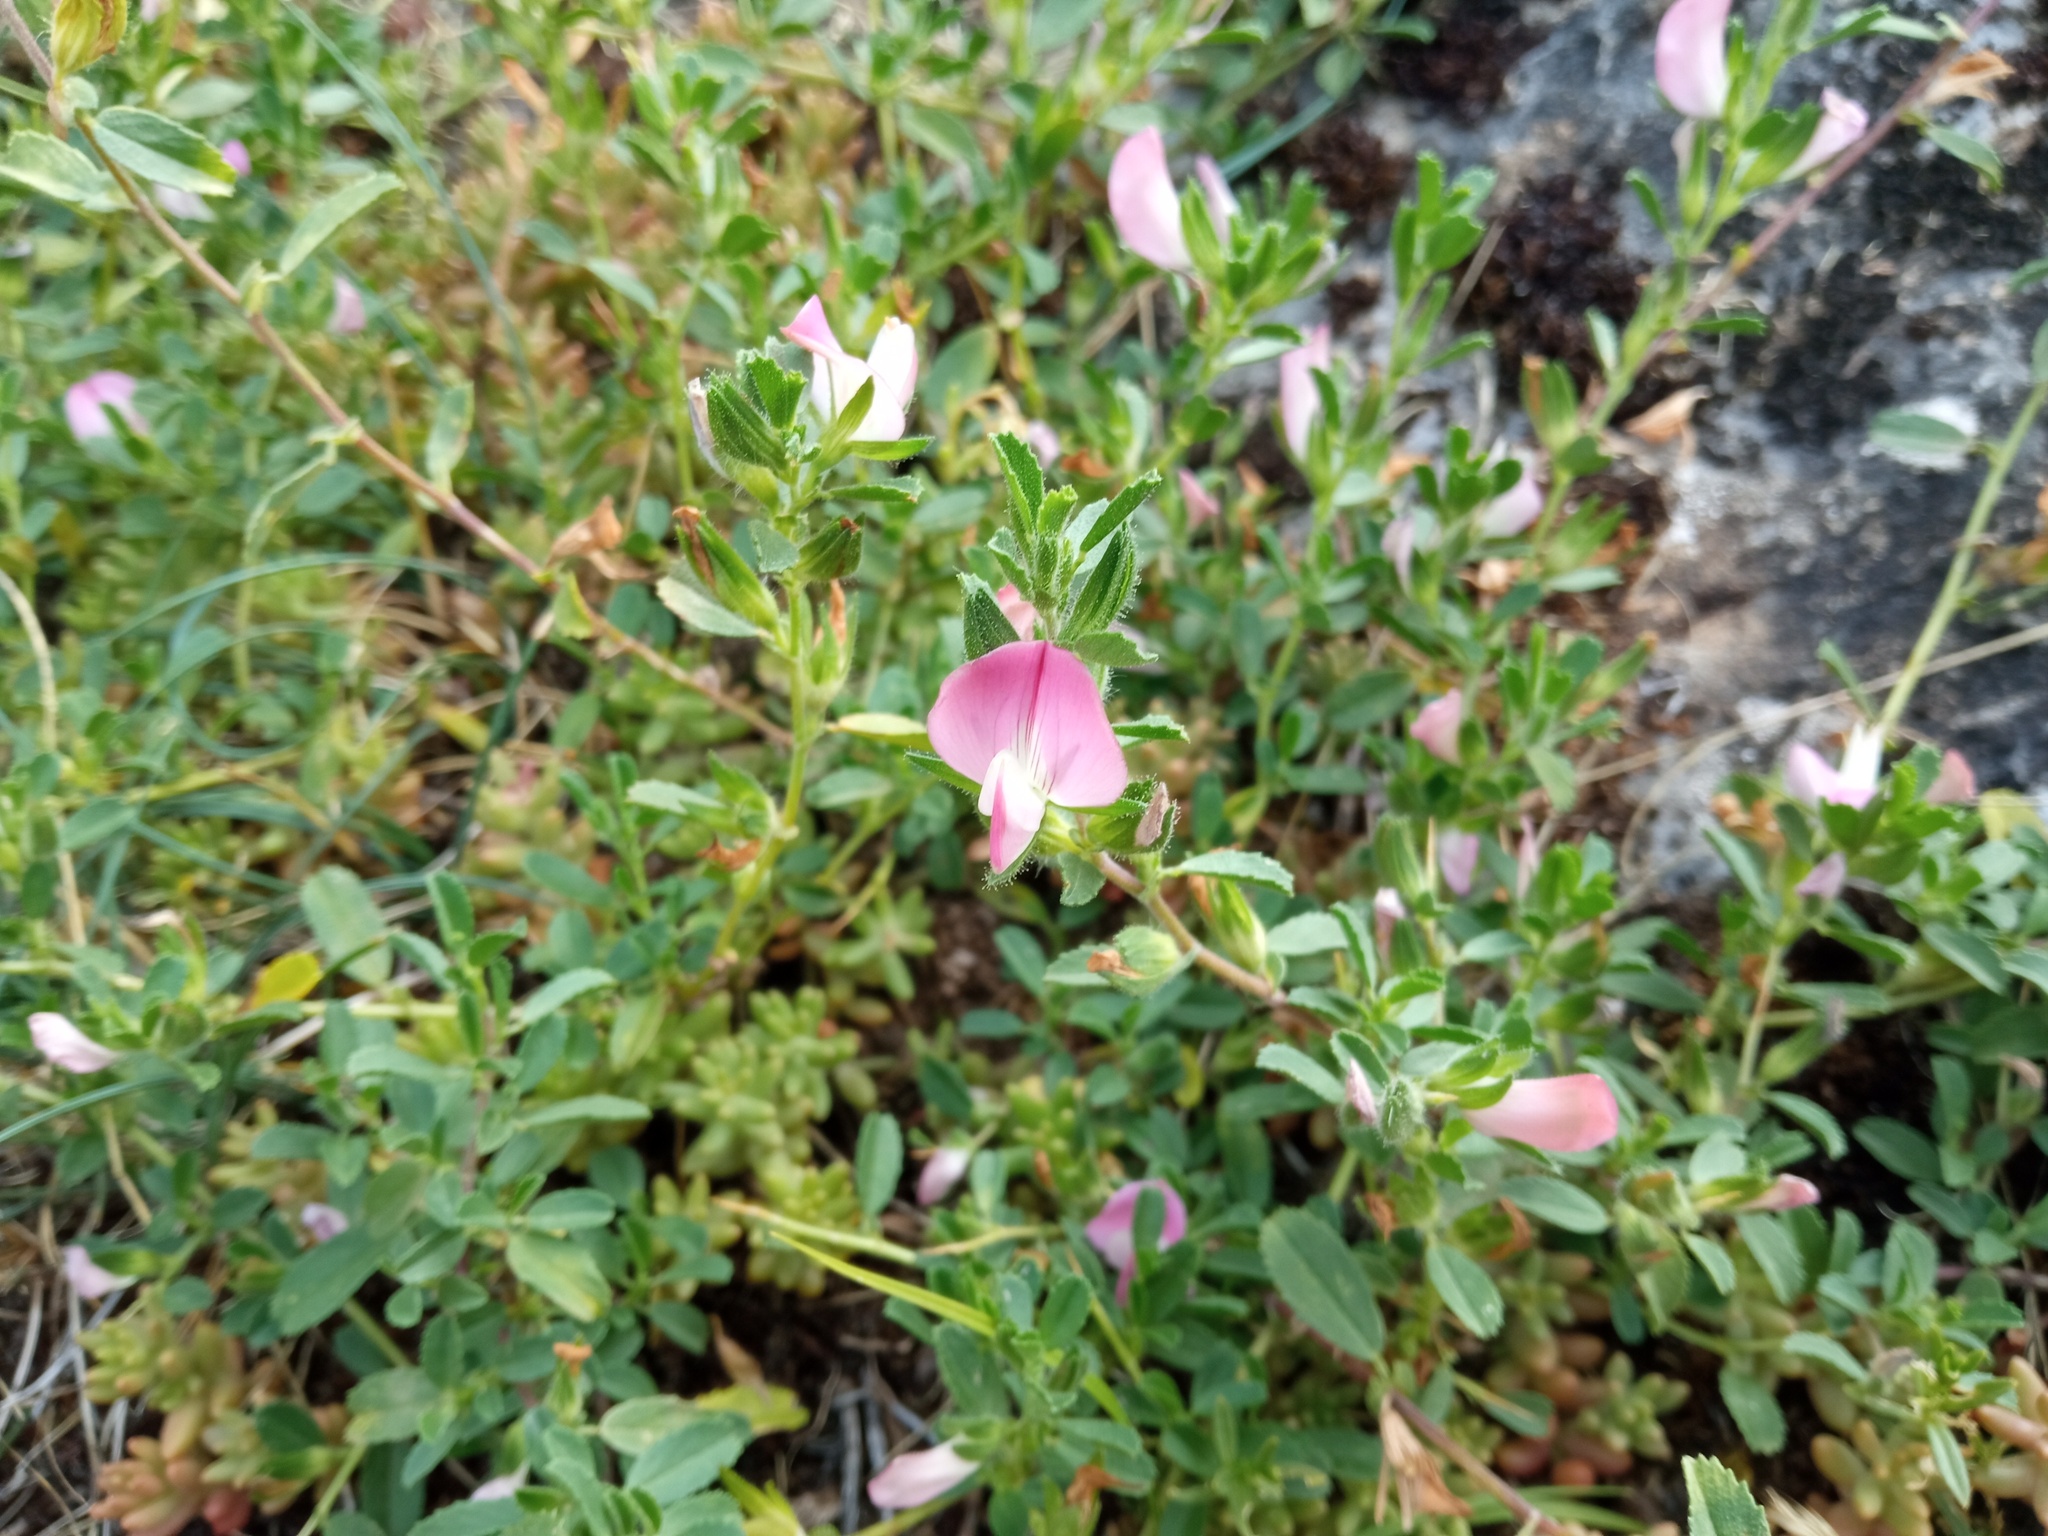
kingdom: Plantae
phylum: Tracheophyta
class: Magnoliopsida
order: Fabales
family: Fabaceae
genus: Ononis
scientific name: Ononis spinosa
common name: Spiny restharrow
